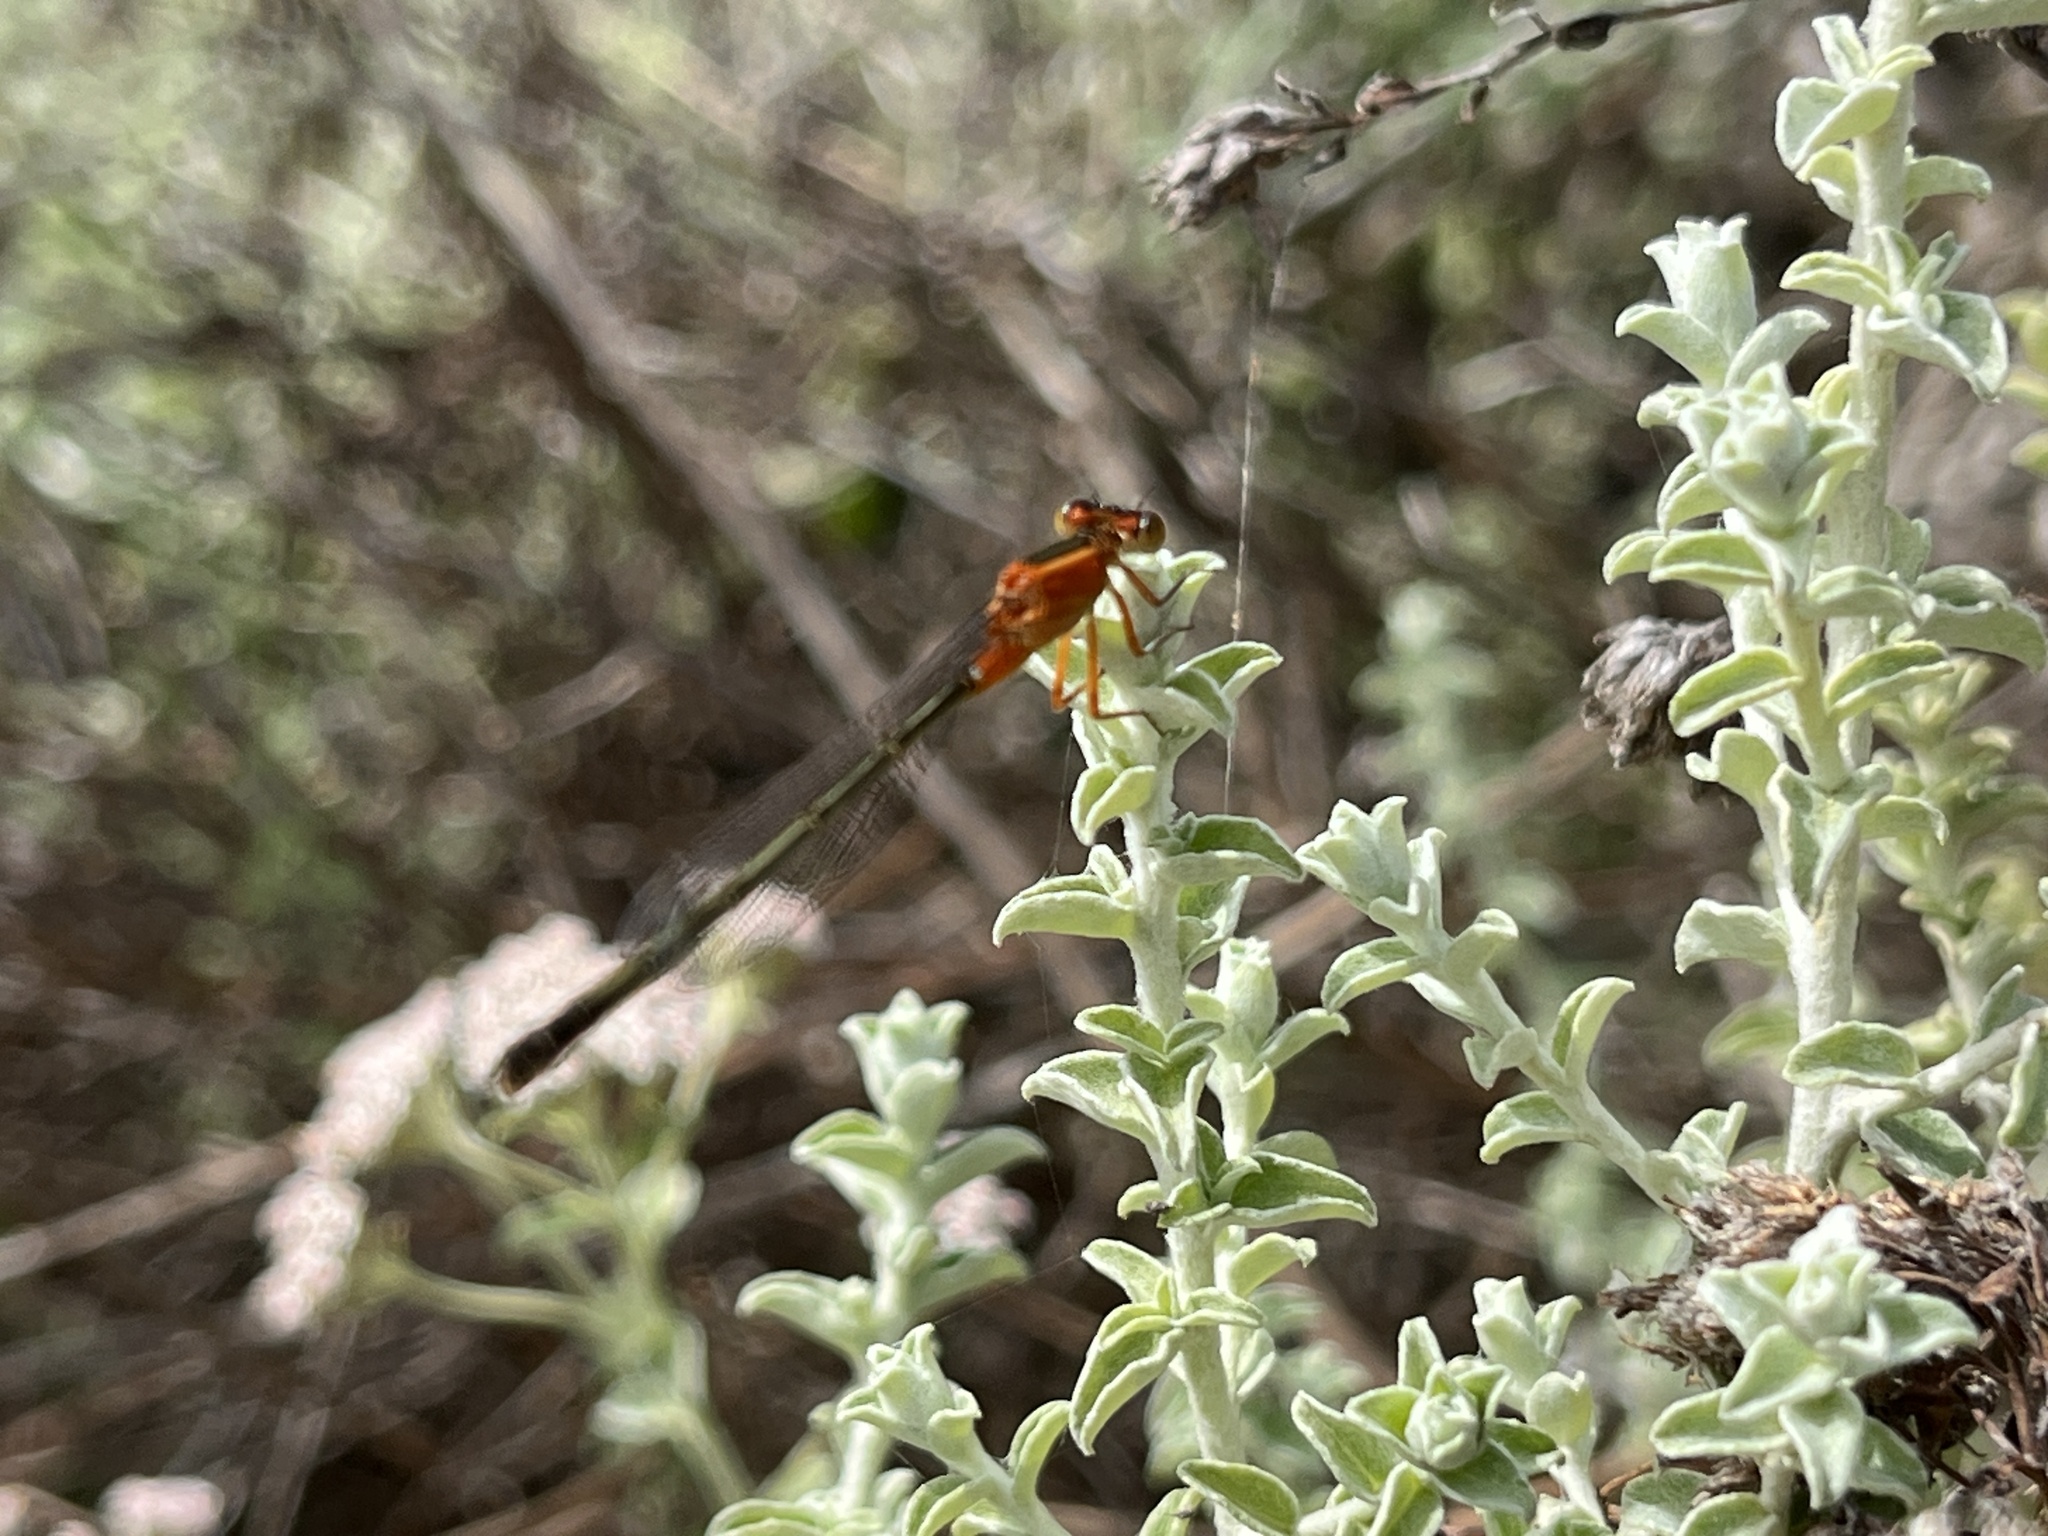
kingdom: Animalia
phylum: Arthropoda
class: Insecta
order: Odonata
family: Coenagrionidae
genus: Ischnura
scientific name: Ischnura senegalensis
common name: Tropical bluetail
